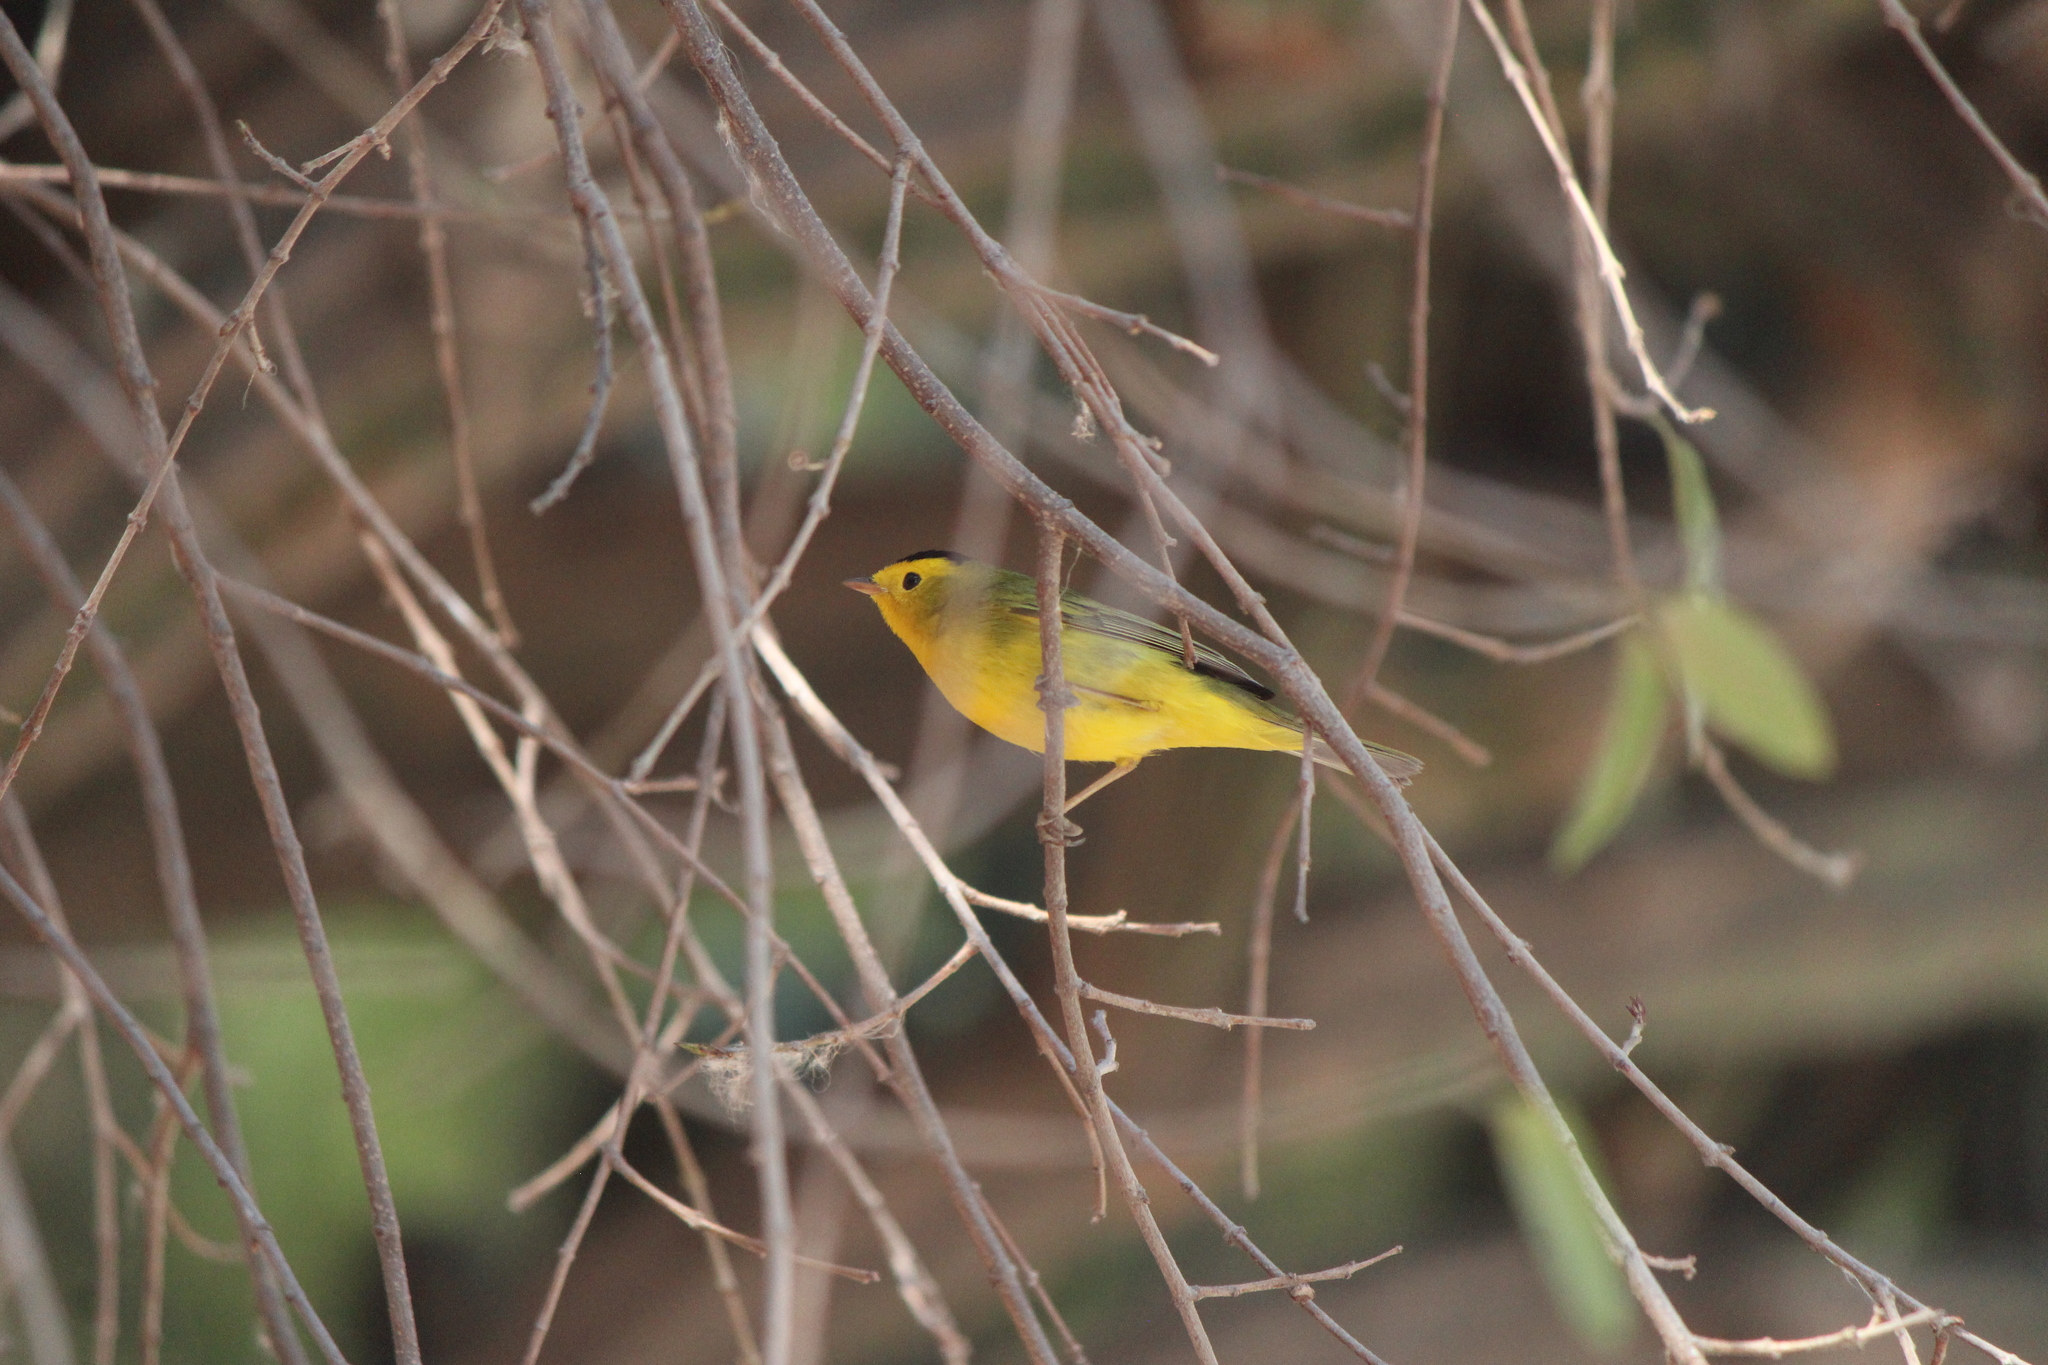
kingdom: Animalia
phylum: Chordata
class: Aves
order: Passeriformes
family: Parulidae
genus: Cardellina
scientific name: Cardellina pusilla
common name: Wilson's warbler
